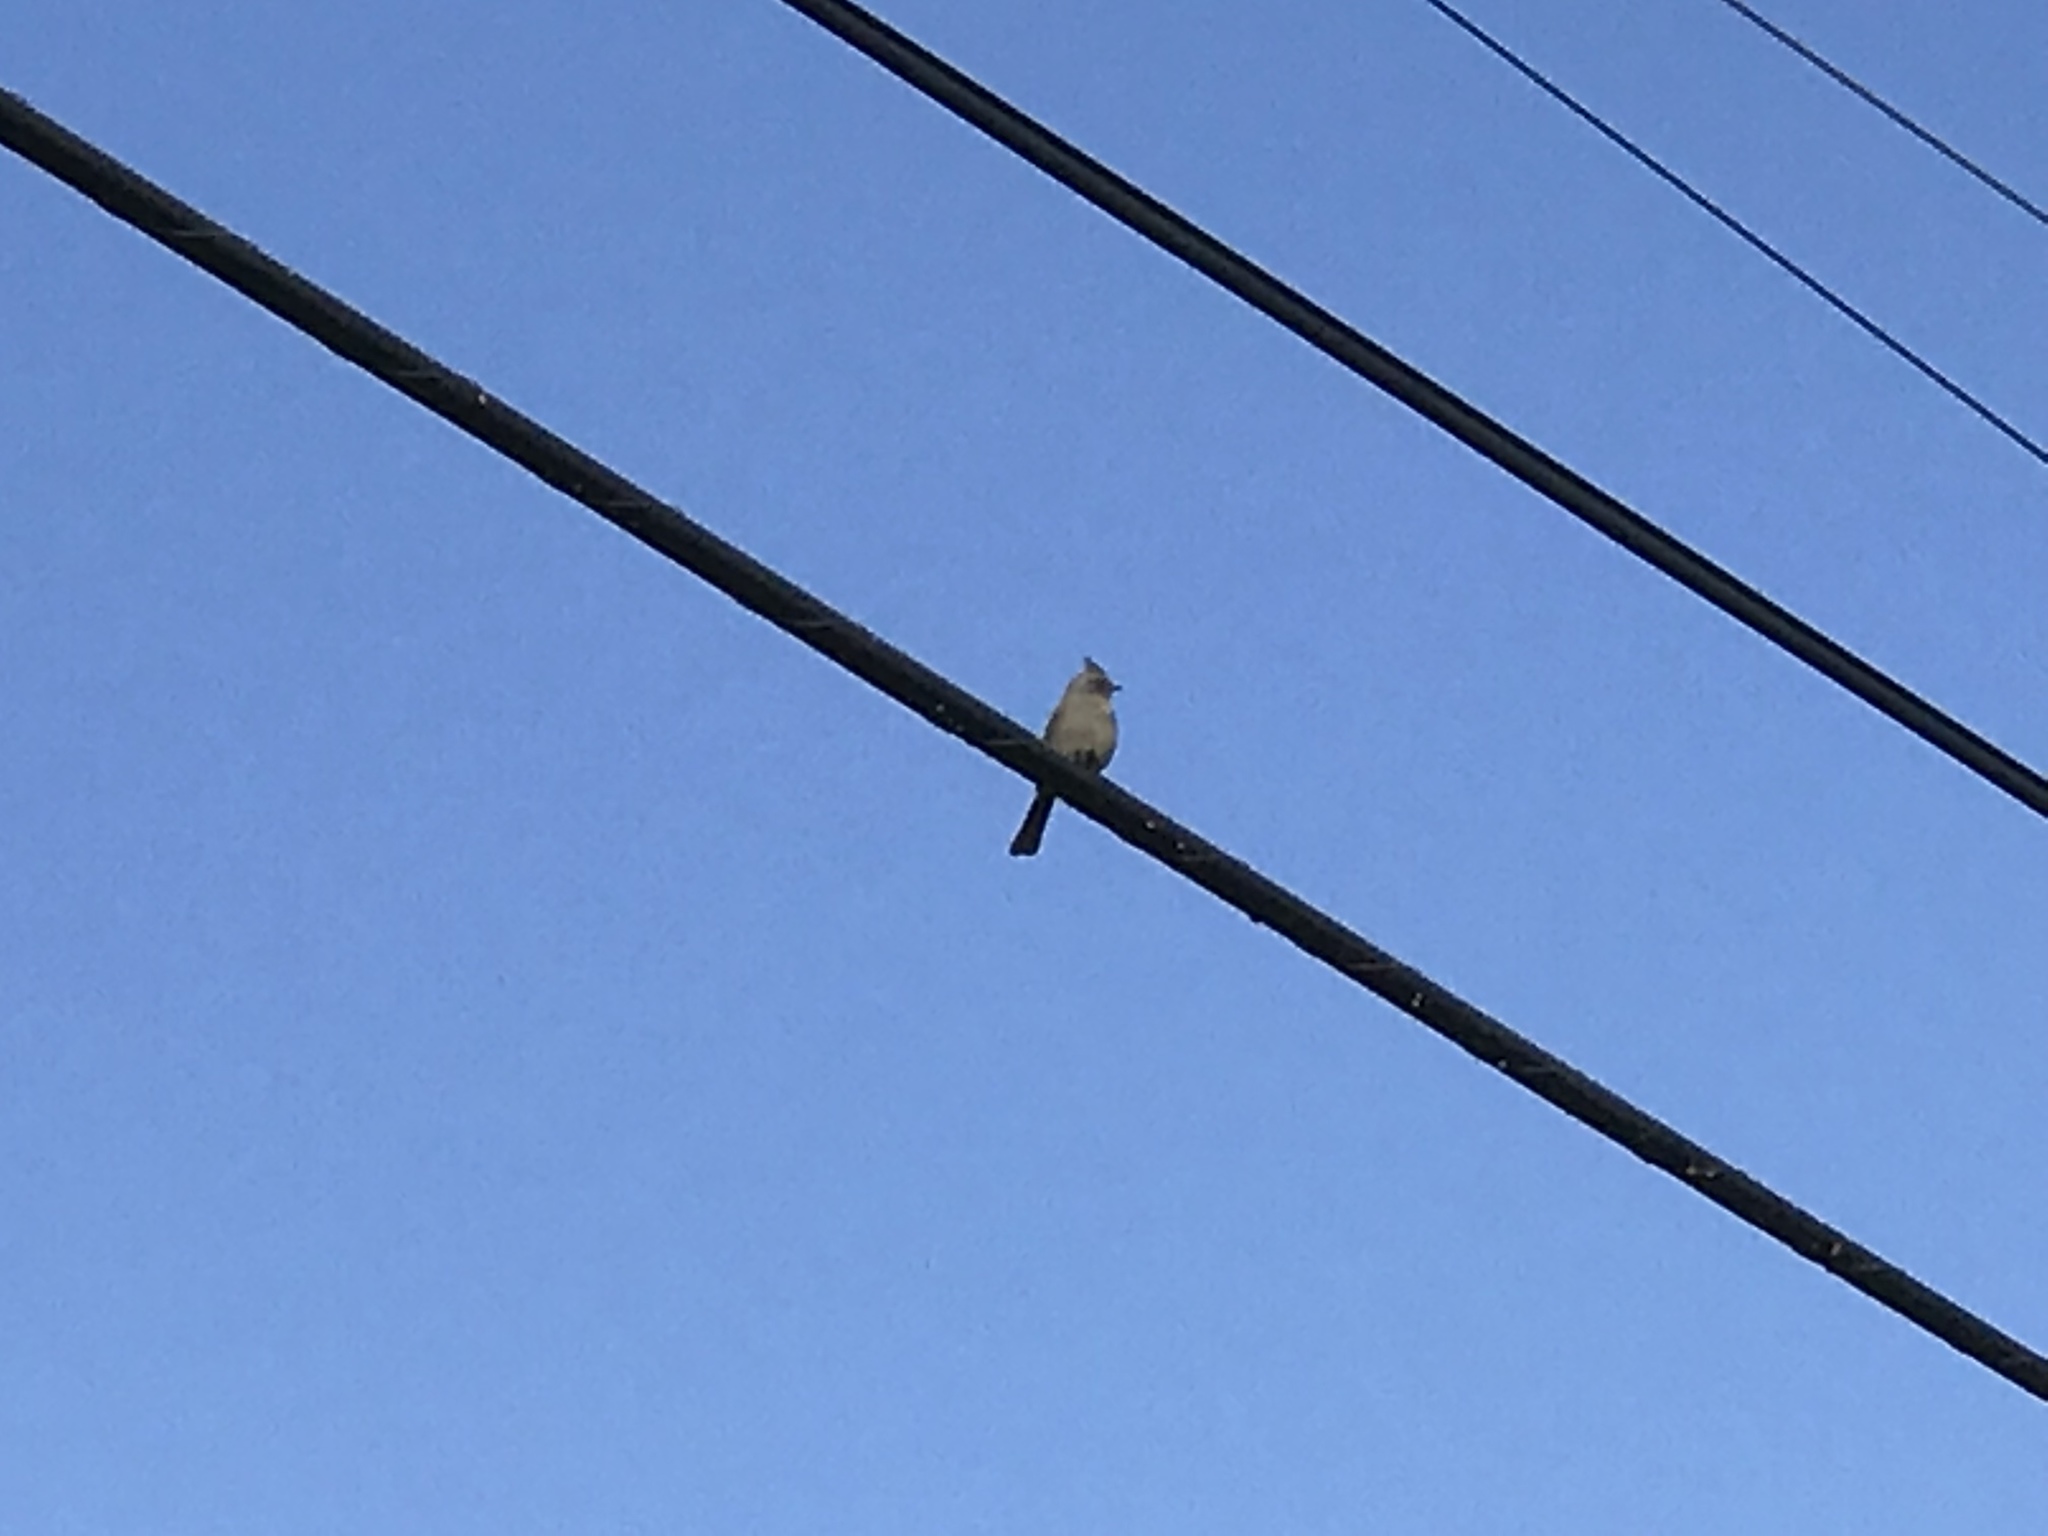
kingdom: Animalia
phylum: Chordata
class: Aves
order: Passeriformes
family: Ptilogonatidae
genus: Phainopepla
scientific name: Phainopepla nitens
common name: Phainopepla
